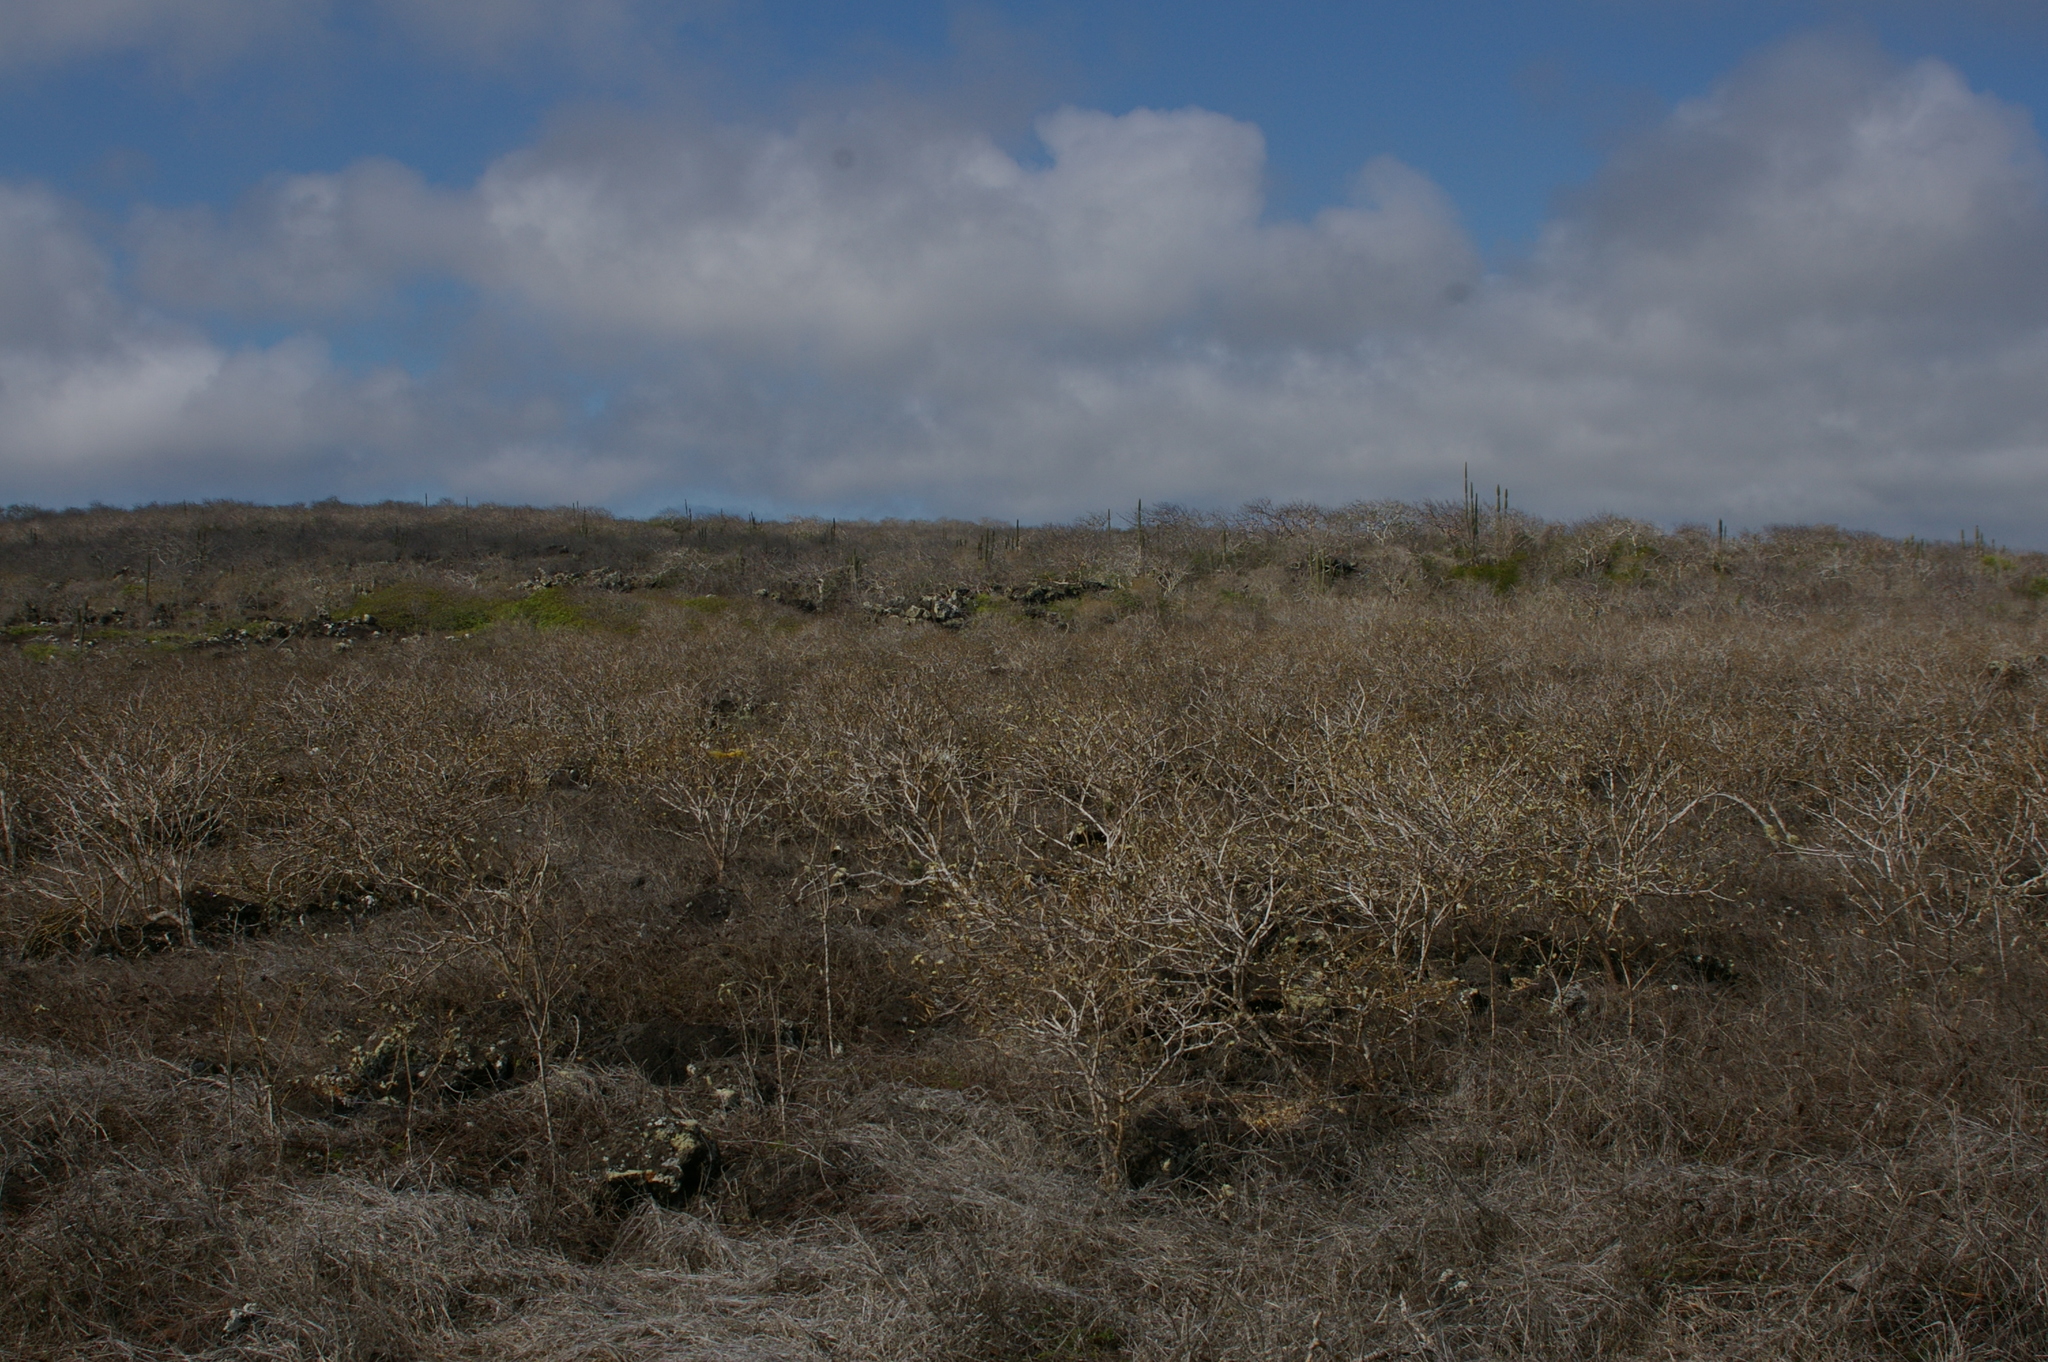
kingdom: Plantae
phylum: Tracheophyta
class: Magnoliopsida
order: Sapindales
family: Burseraceae
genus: Bursera
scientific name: Bursera graveolens
